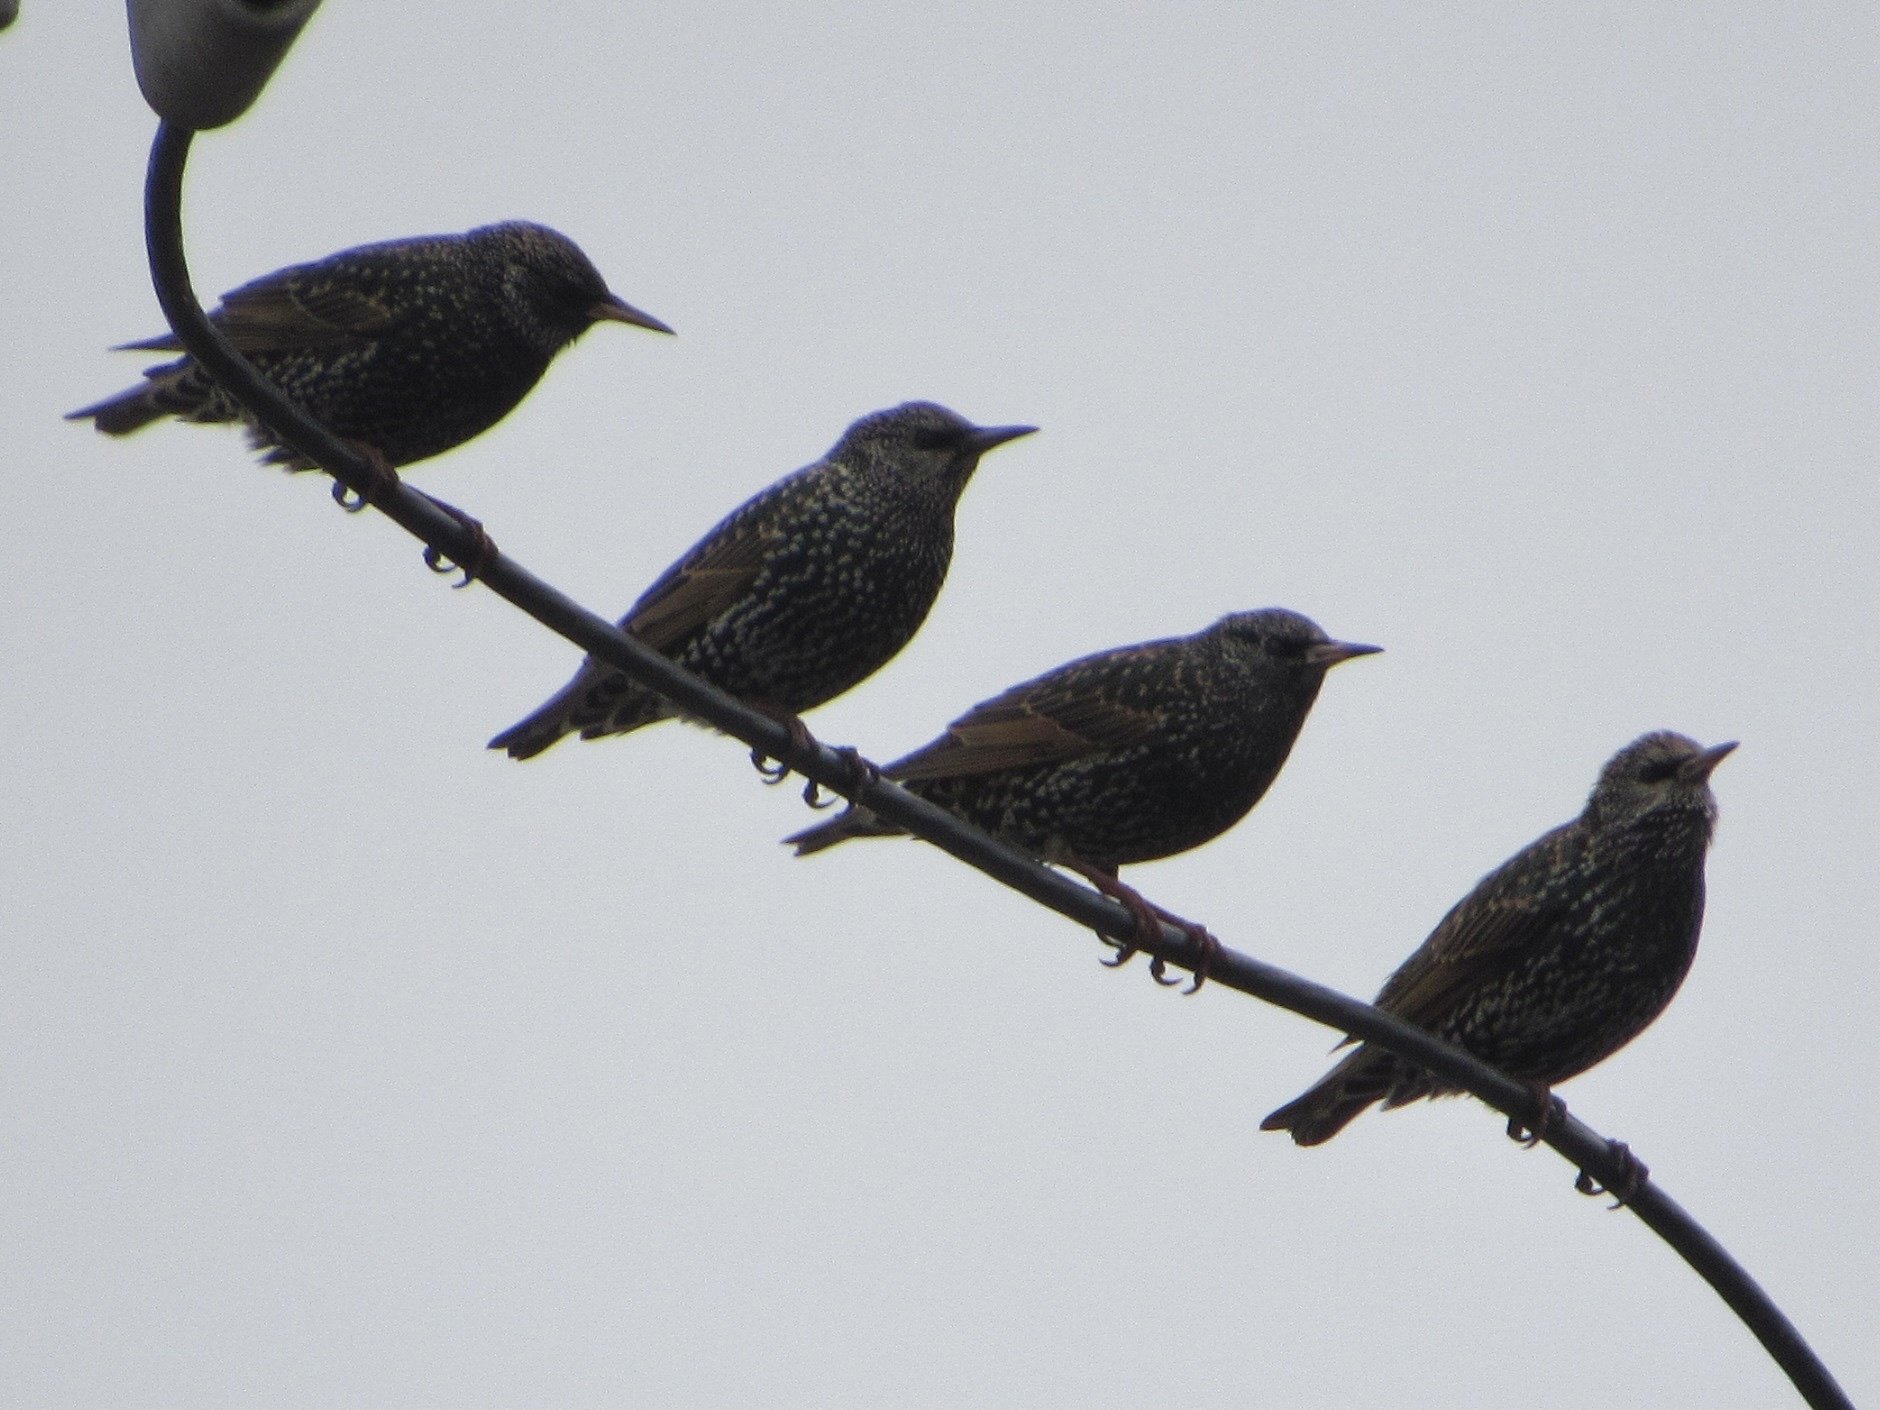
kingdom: Animalia
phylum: Chordata
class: Aves
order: Passeriformes
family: Sturnidae
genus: Sturnus
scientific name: Sturnus vulgaris
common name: Common starling
